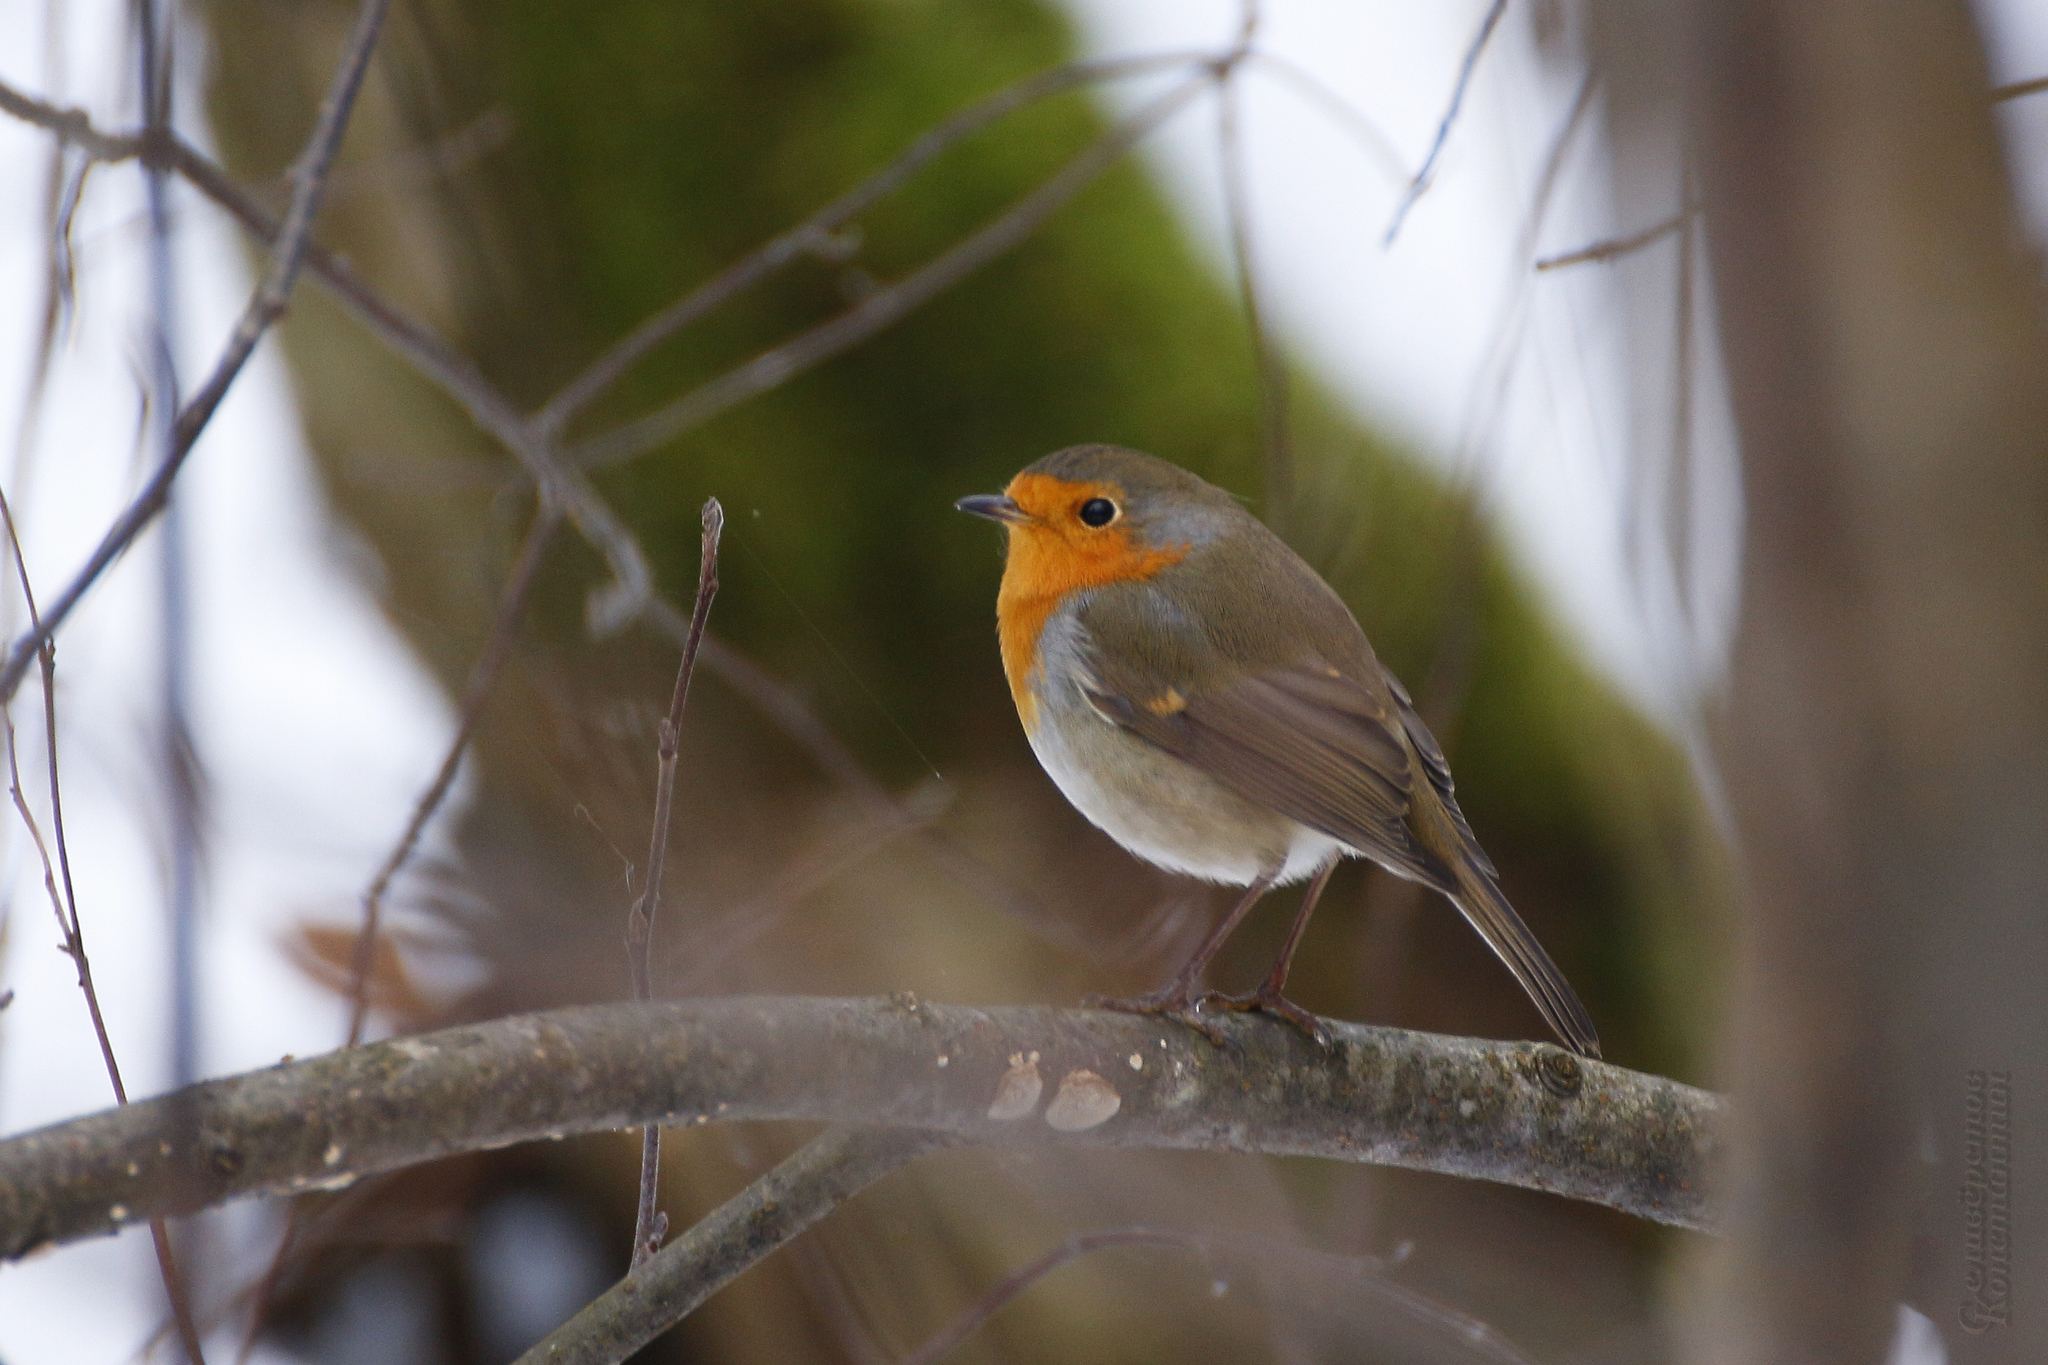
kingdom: Animalia
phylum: Chordata
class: Aves
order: Passeriformes
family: Muscicapidae
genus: Erithacus
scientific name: Erithacus rubecula
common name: European robin
